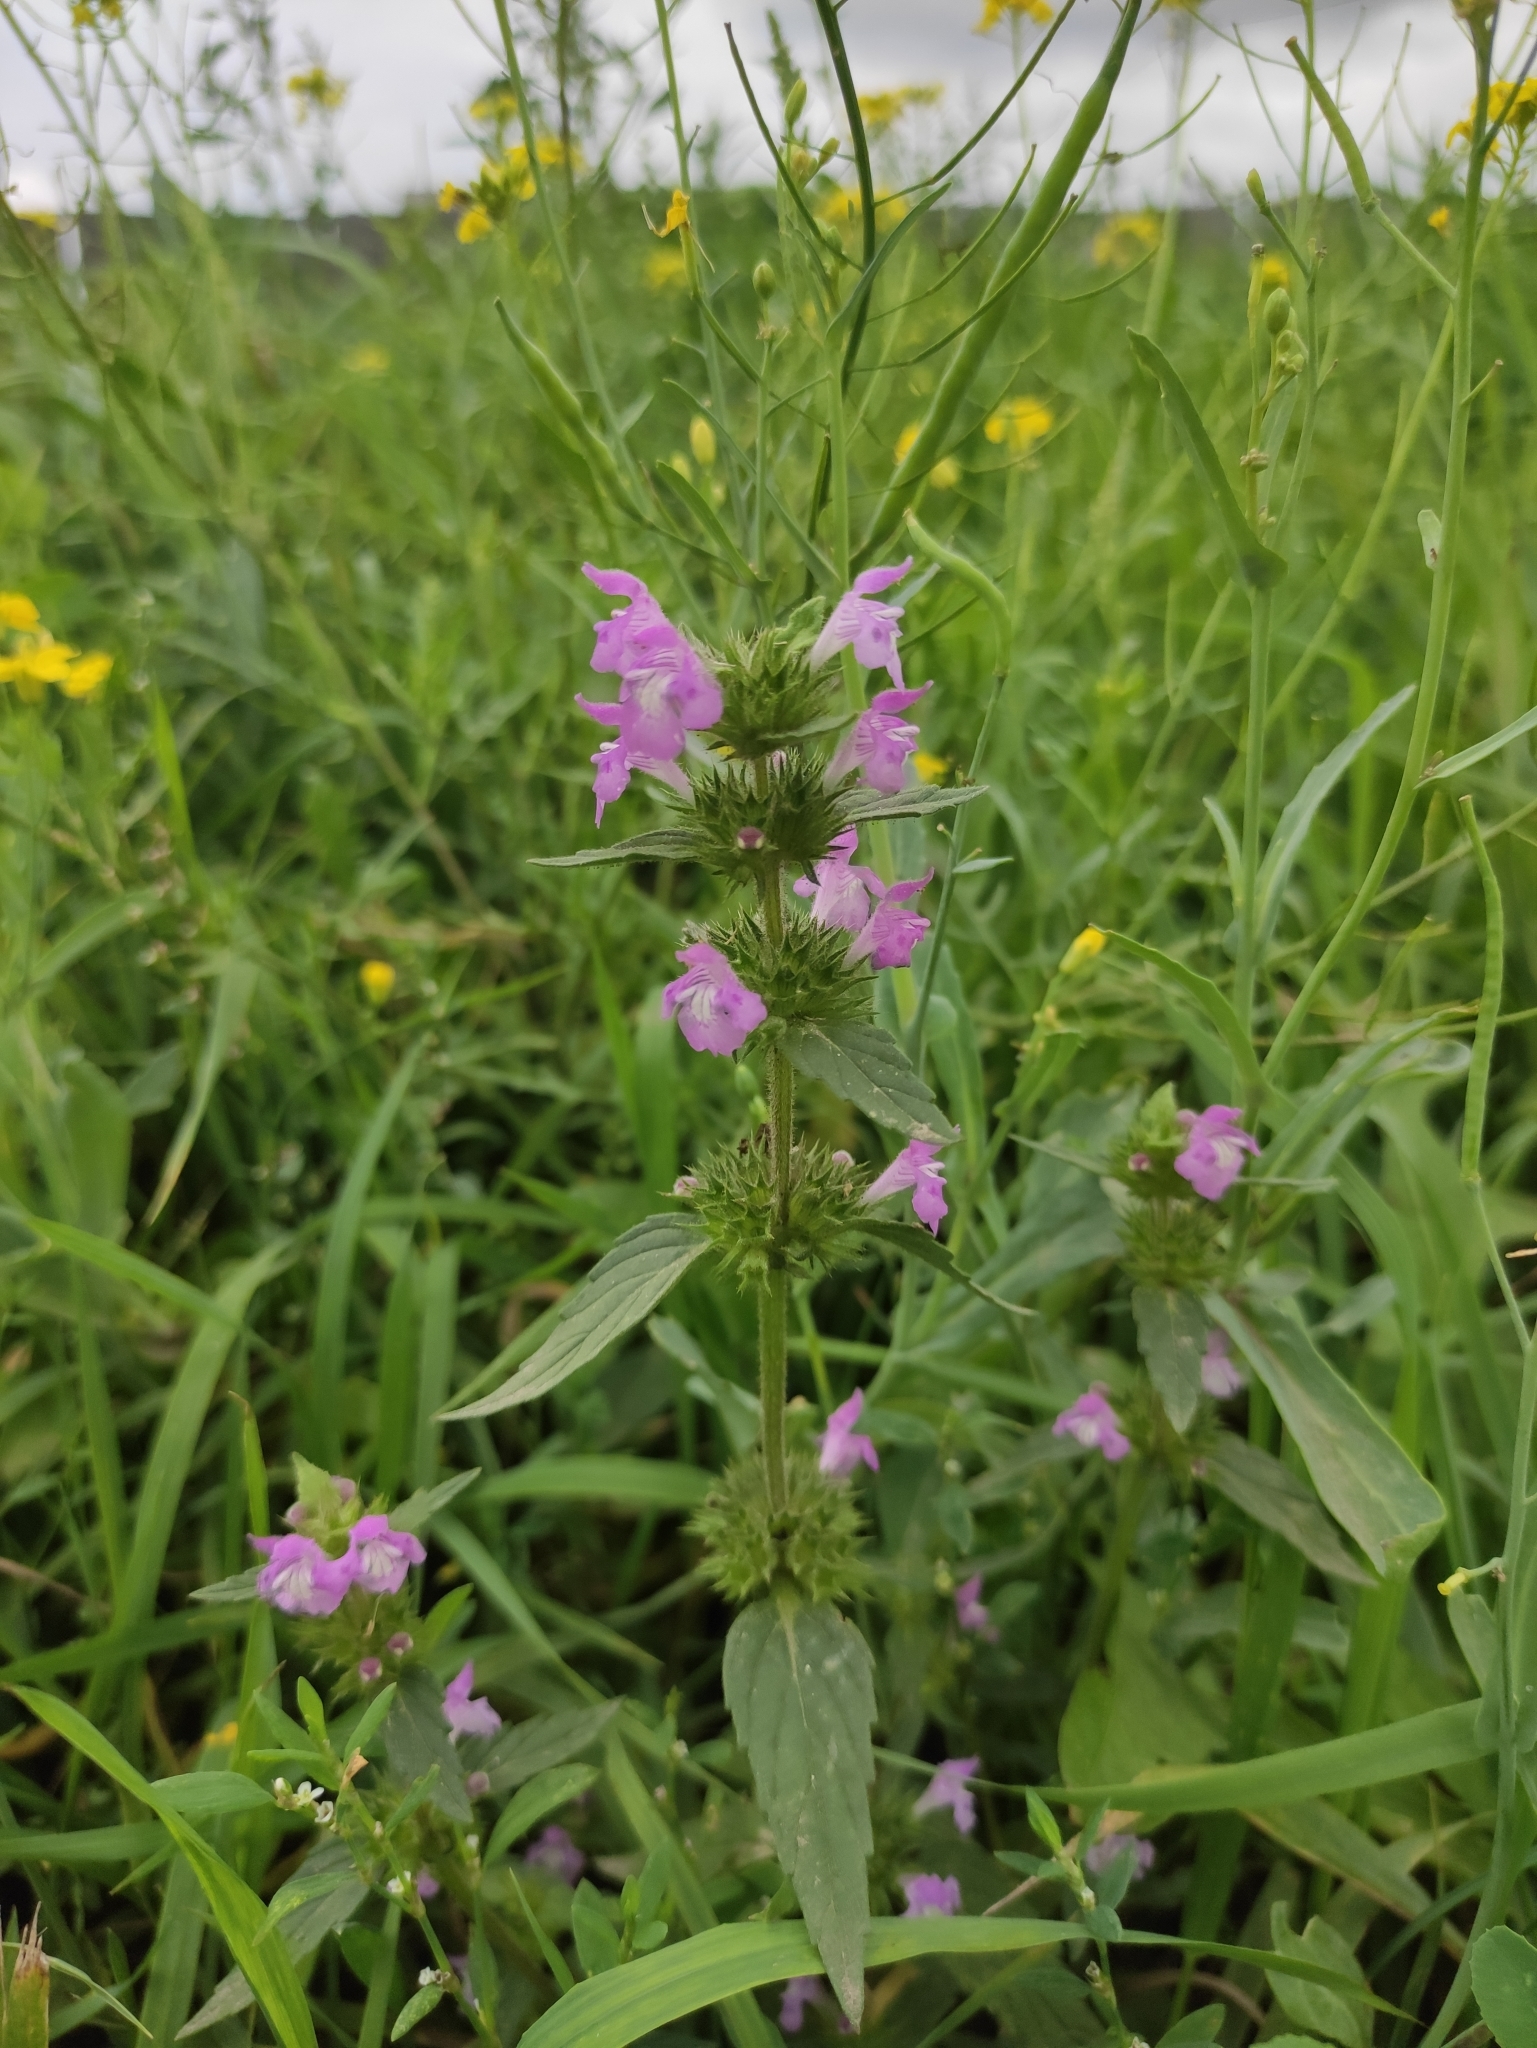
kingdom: Plantae
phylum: Tracheophyta
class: Magnoliopsida
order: Lamiales
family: Lamiaceae
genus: Galeopsis
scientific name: Galeopsis ladanum
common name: Broad-leaved hemp-nettle
